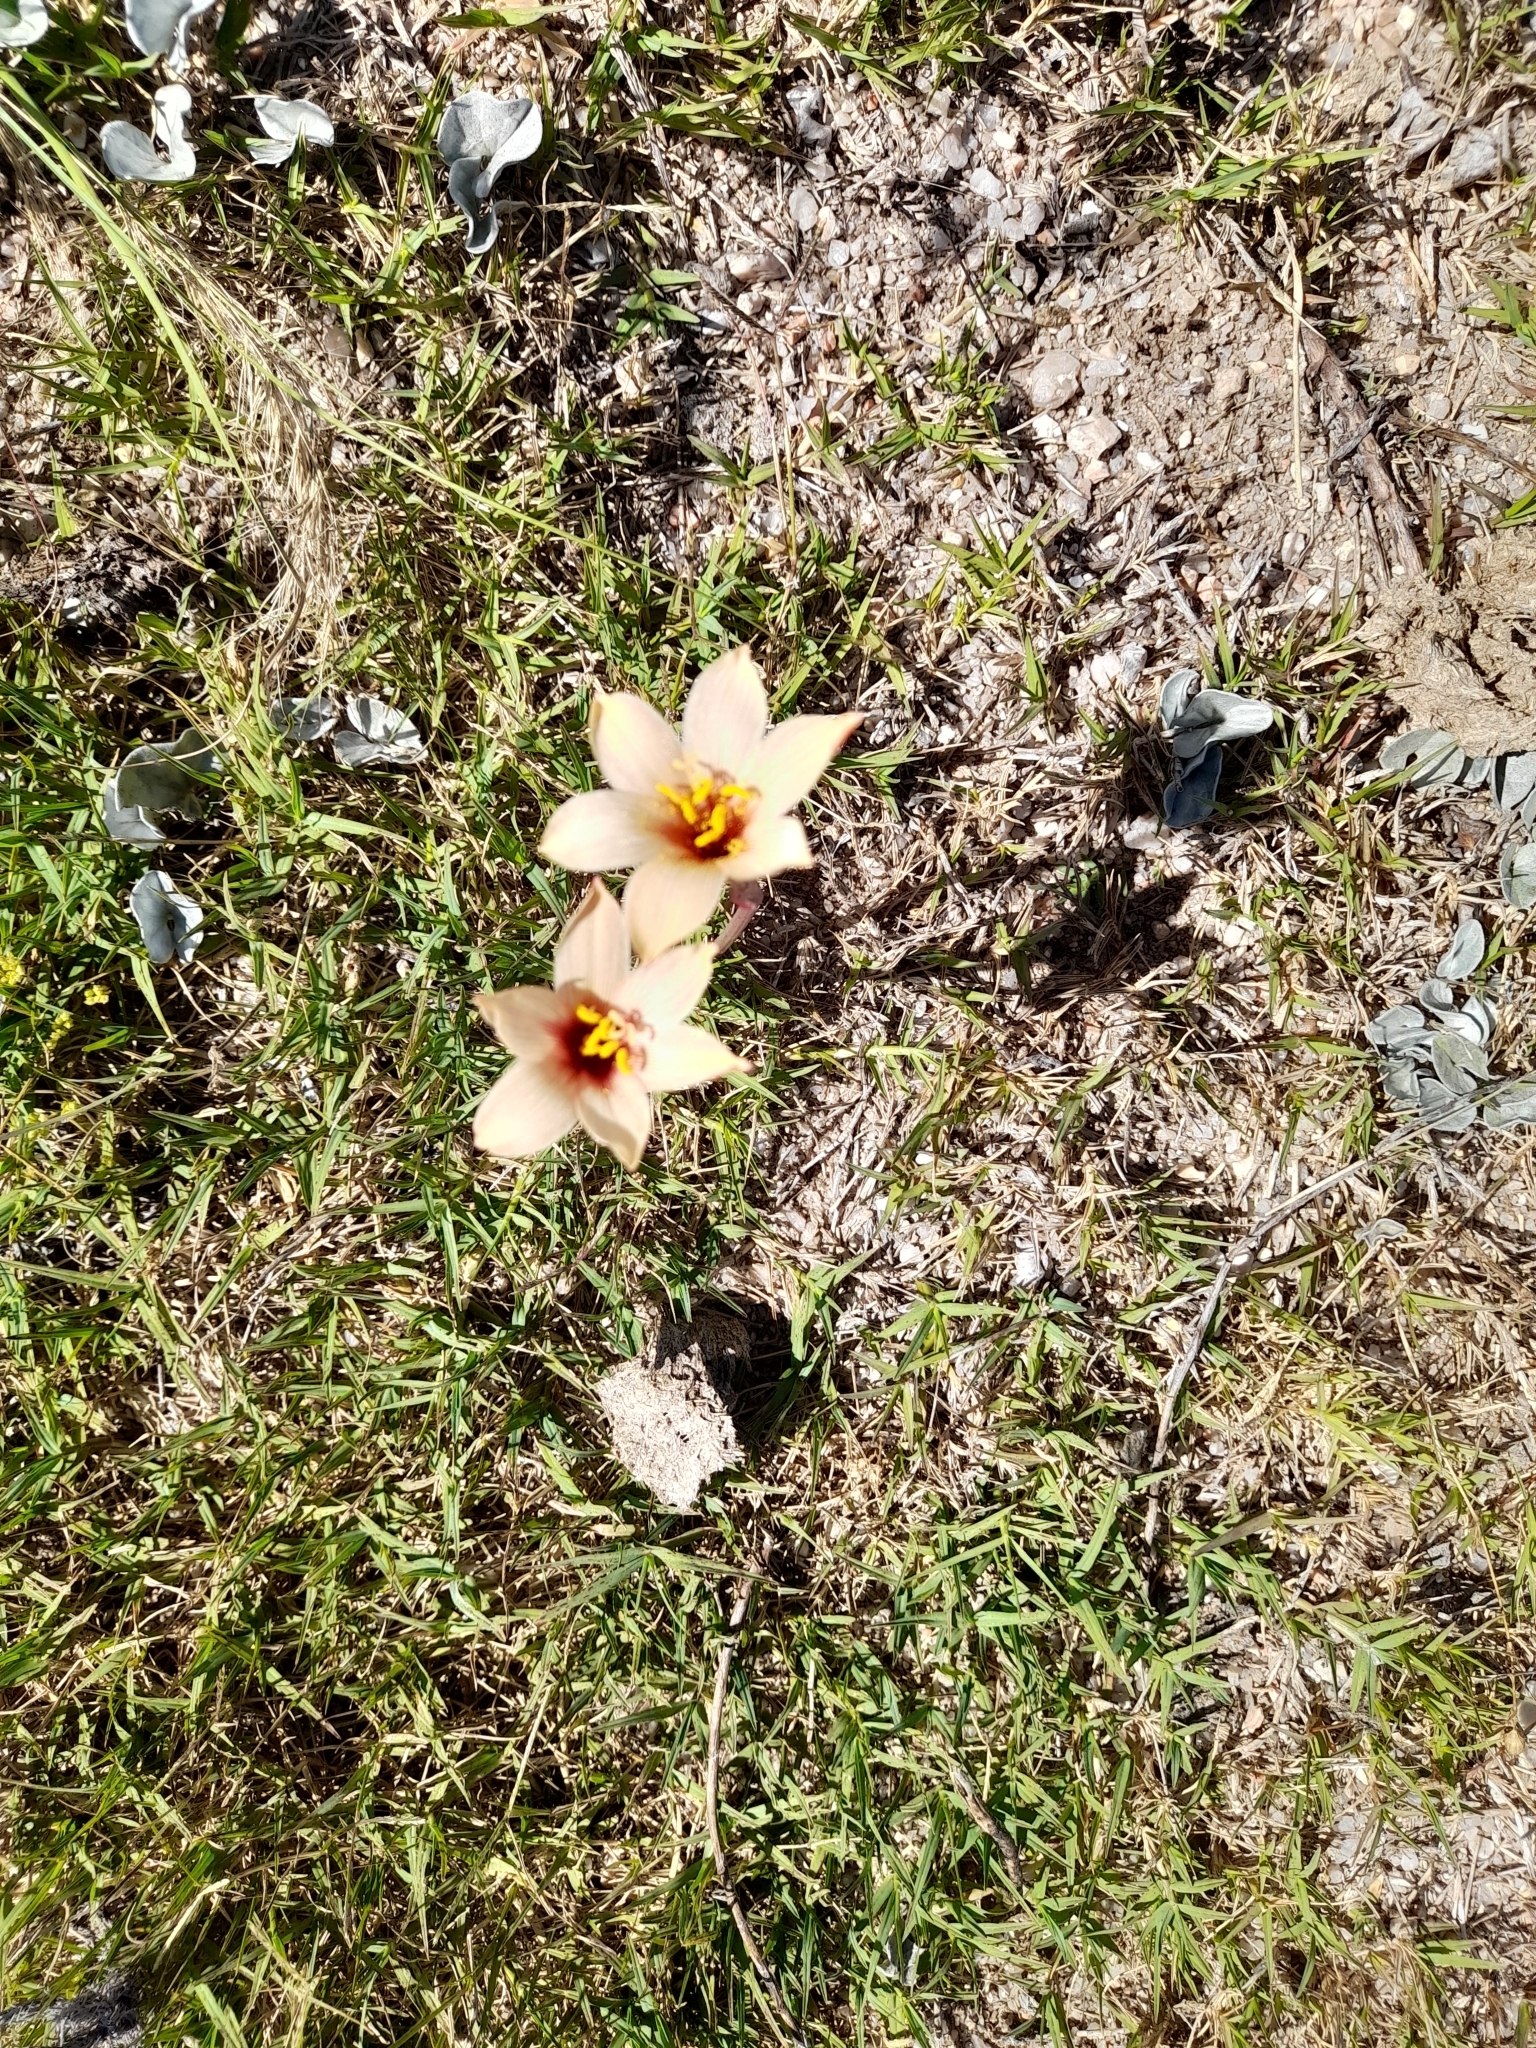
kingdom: Plantae
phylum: Tracheophyta
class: Liliopsida
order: Asparagales
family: Amaryllidaceae
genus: Zephyranthes
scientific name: Zephyranthes tubispatha
